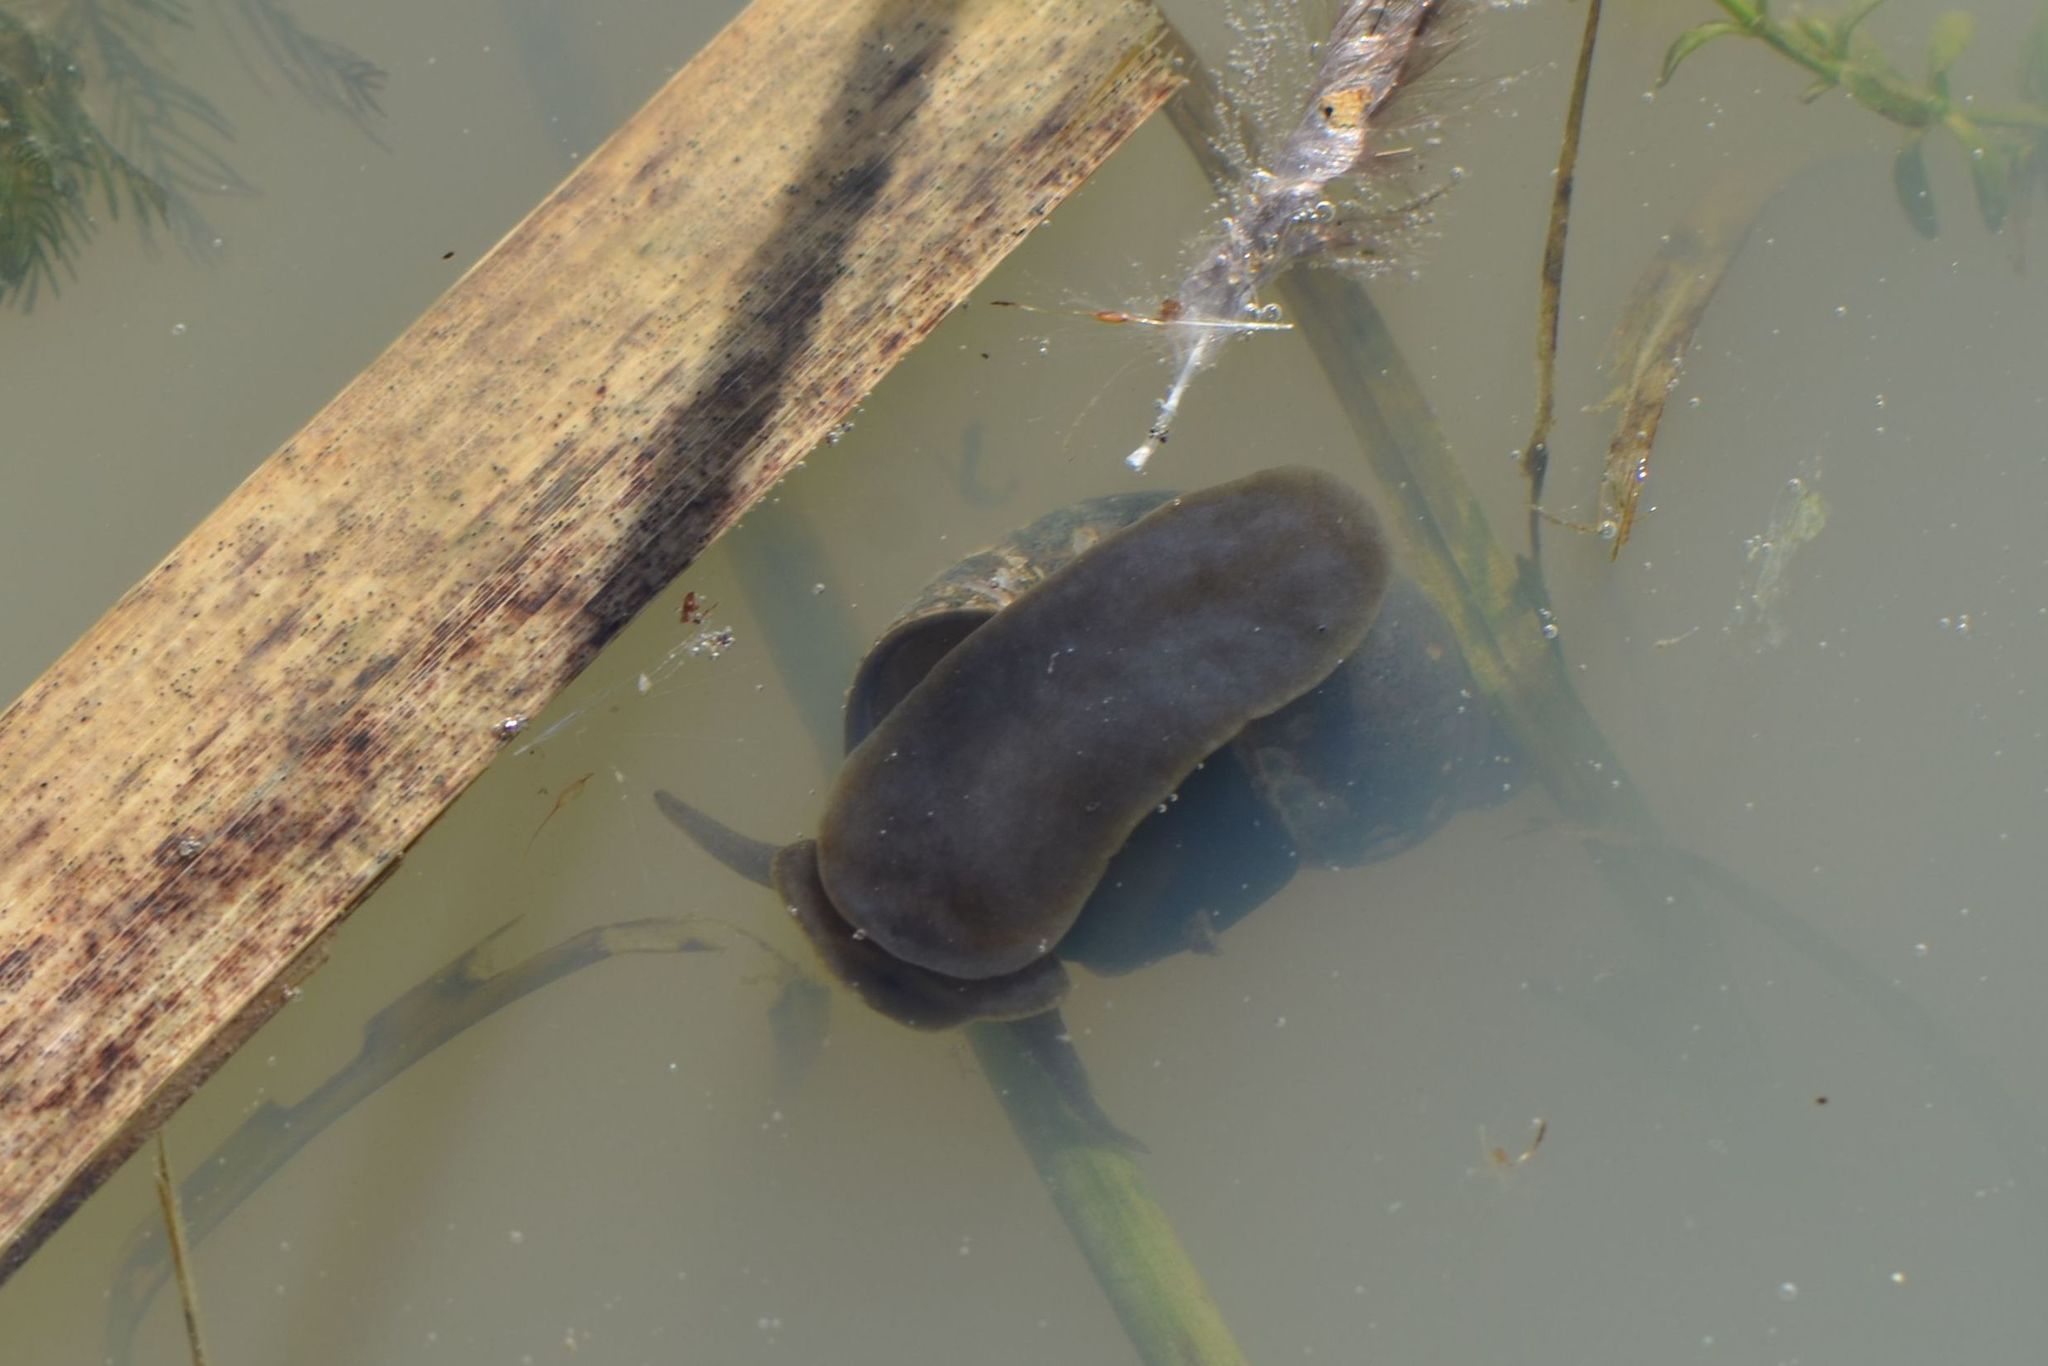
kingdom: Animalia
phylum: Mollusca
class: Gastropoda
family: Lymnaeidae
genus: Lymnaea
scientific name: Lymnaea stagnalis
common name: Great pond snail
